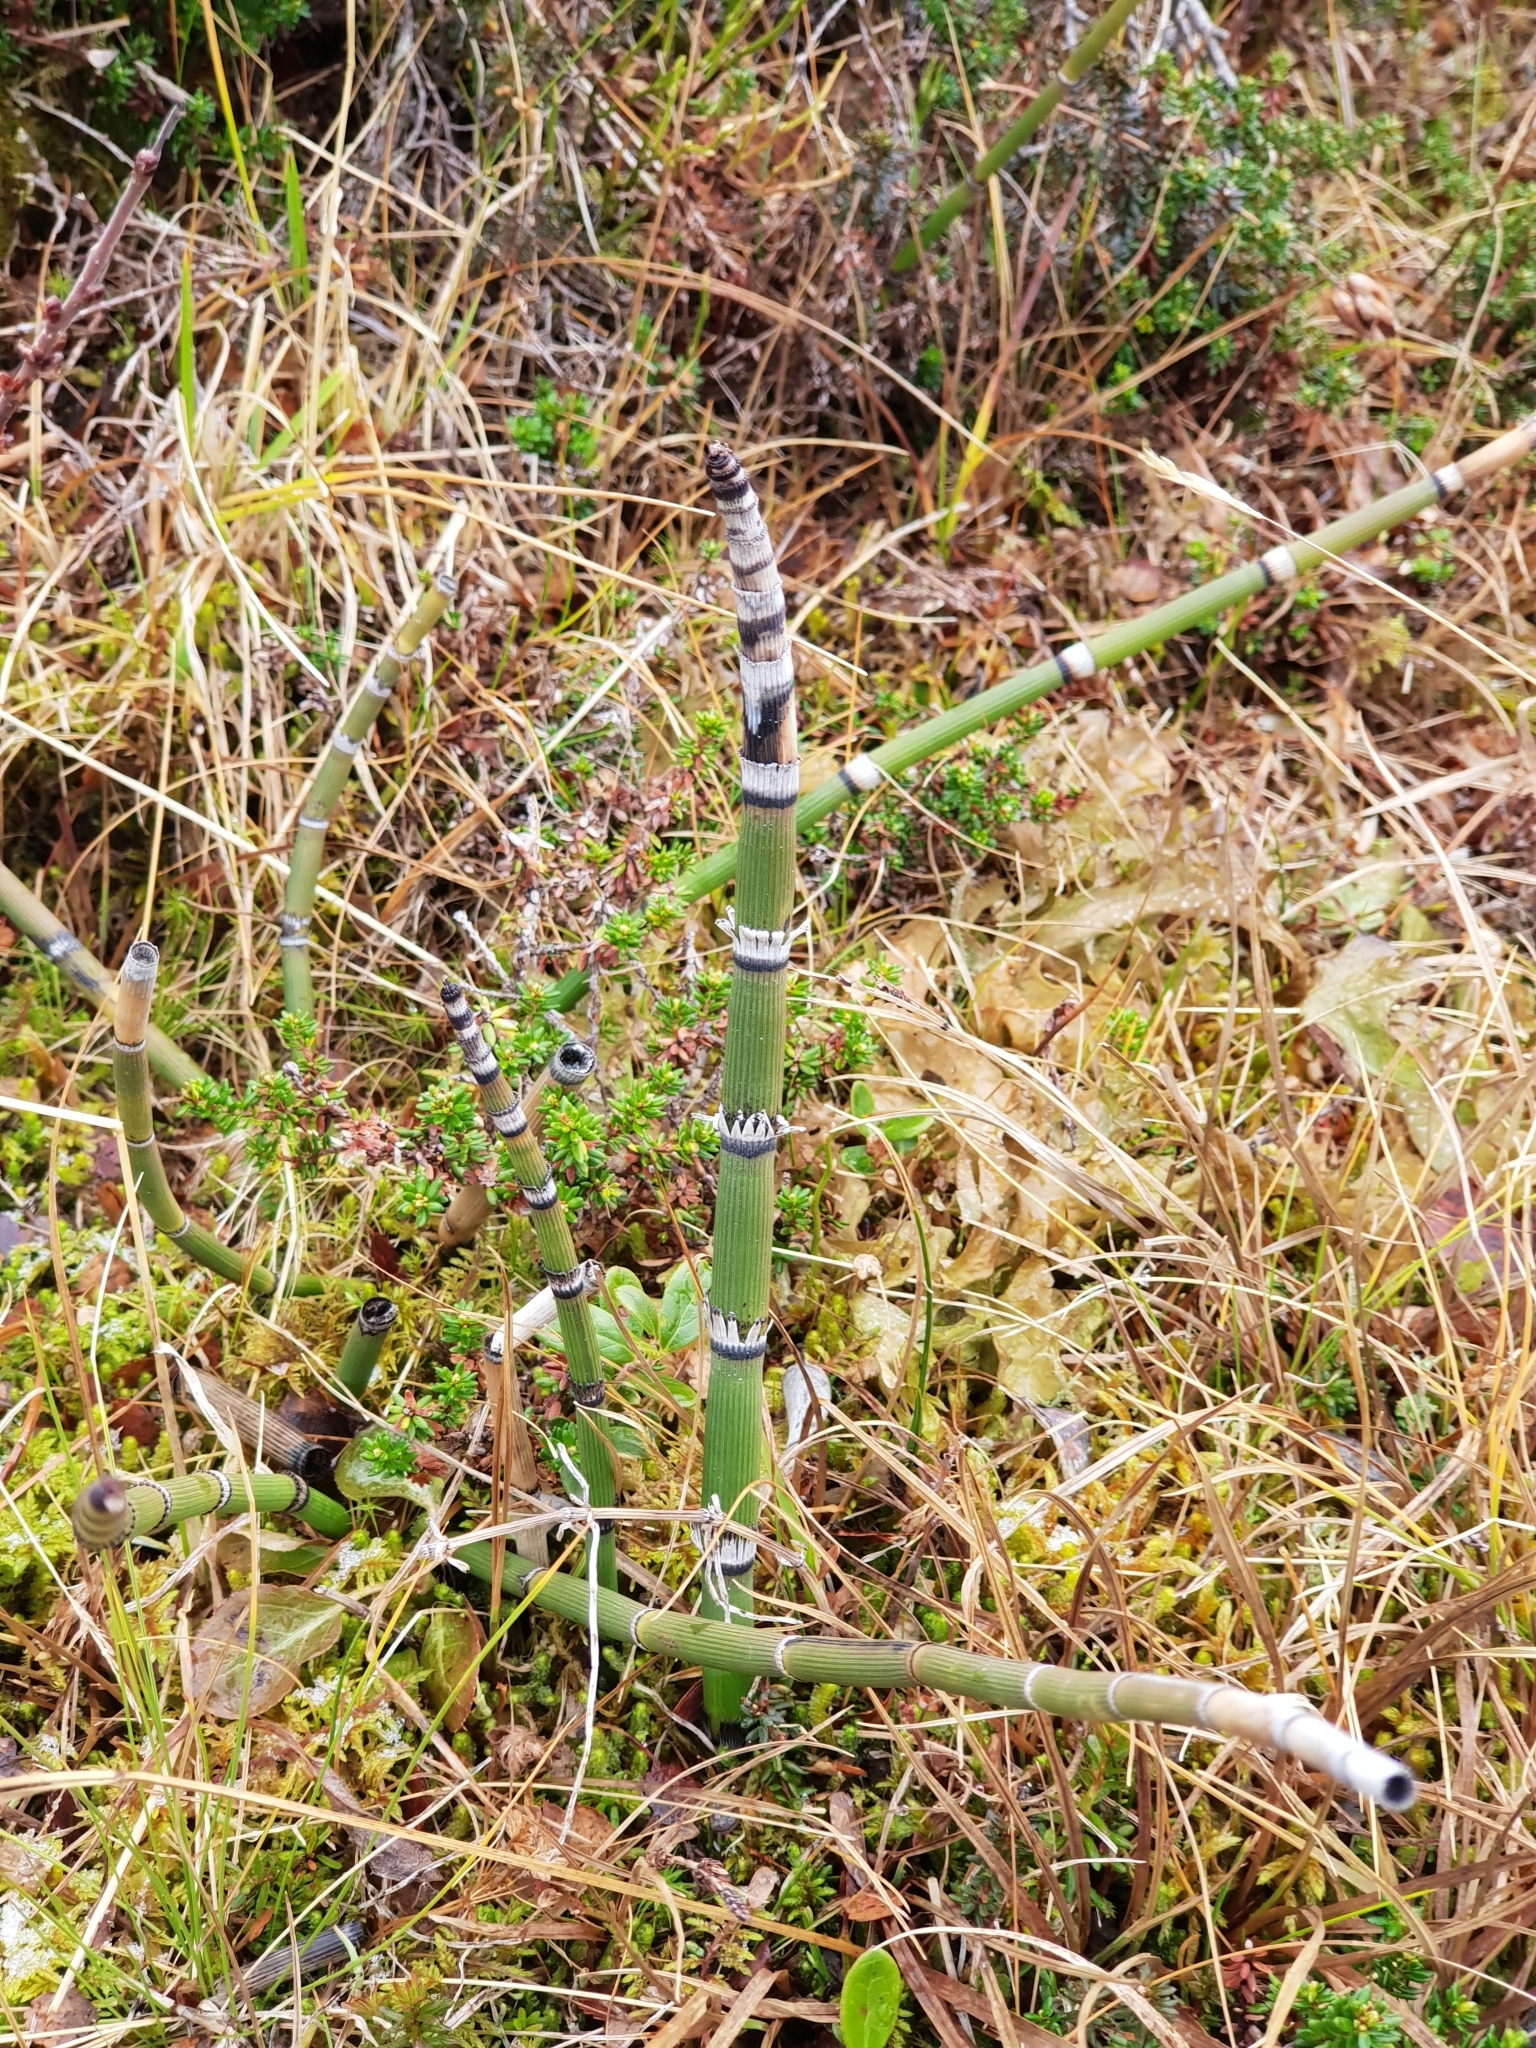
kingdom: Plantae
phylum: Tracheophyta
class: Polypodiopsida
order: Equisetales
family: Equisetaceae
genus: Equisetum
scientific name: Equisetum hyemale
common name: Rough horsetail
